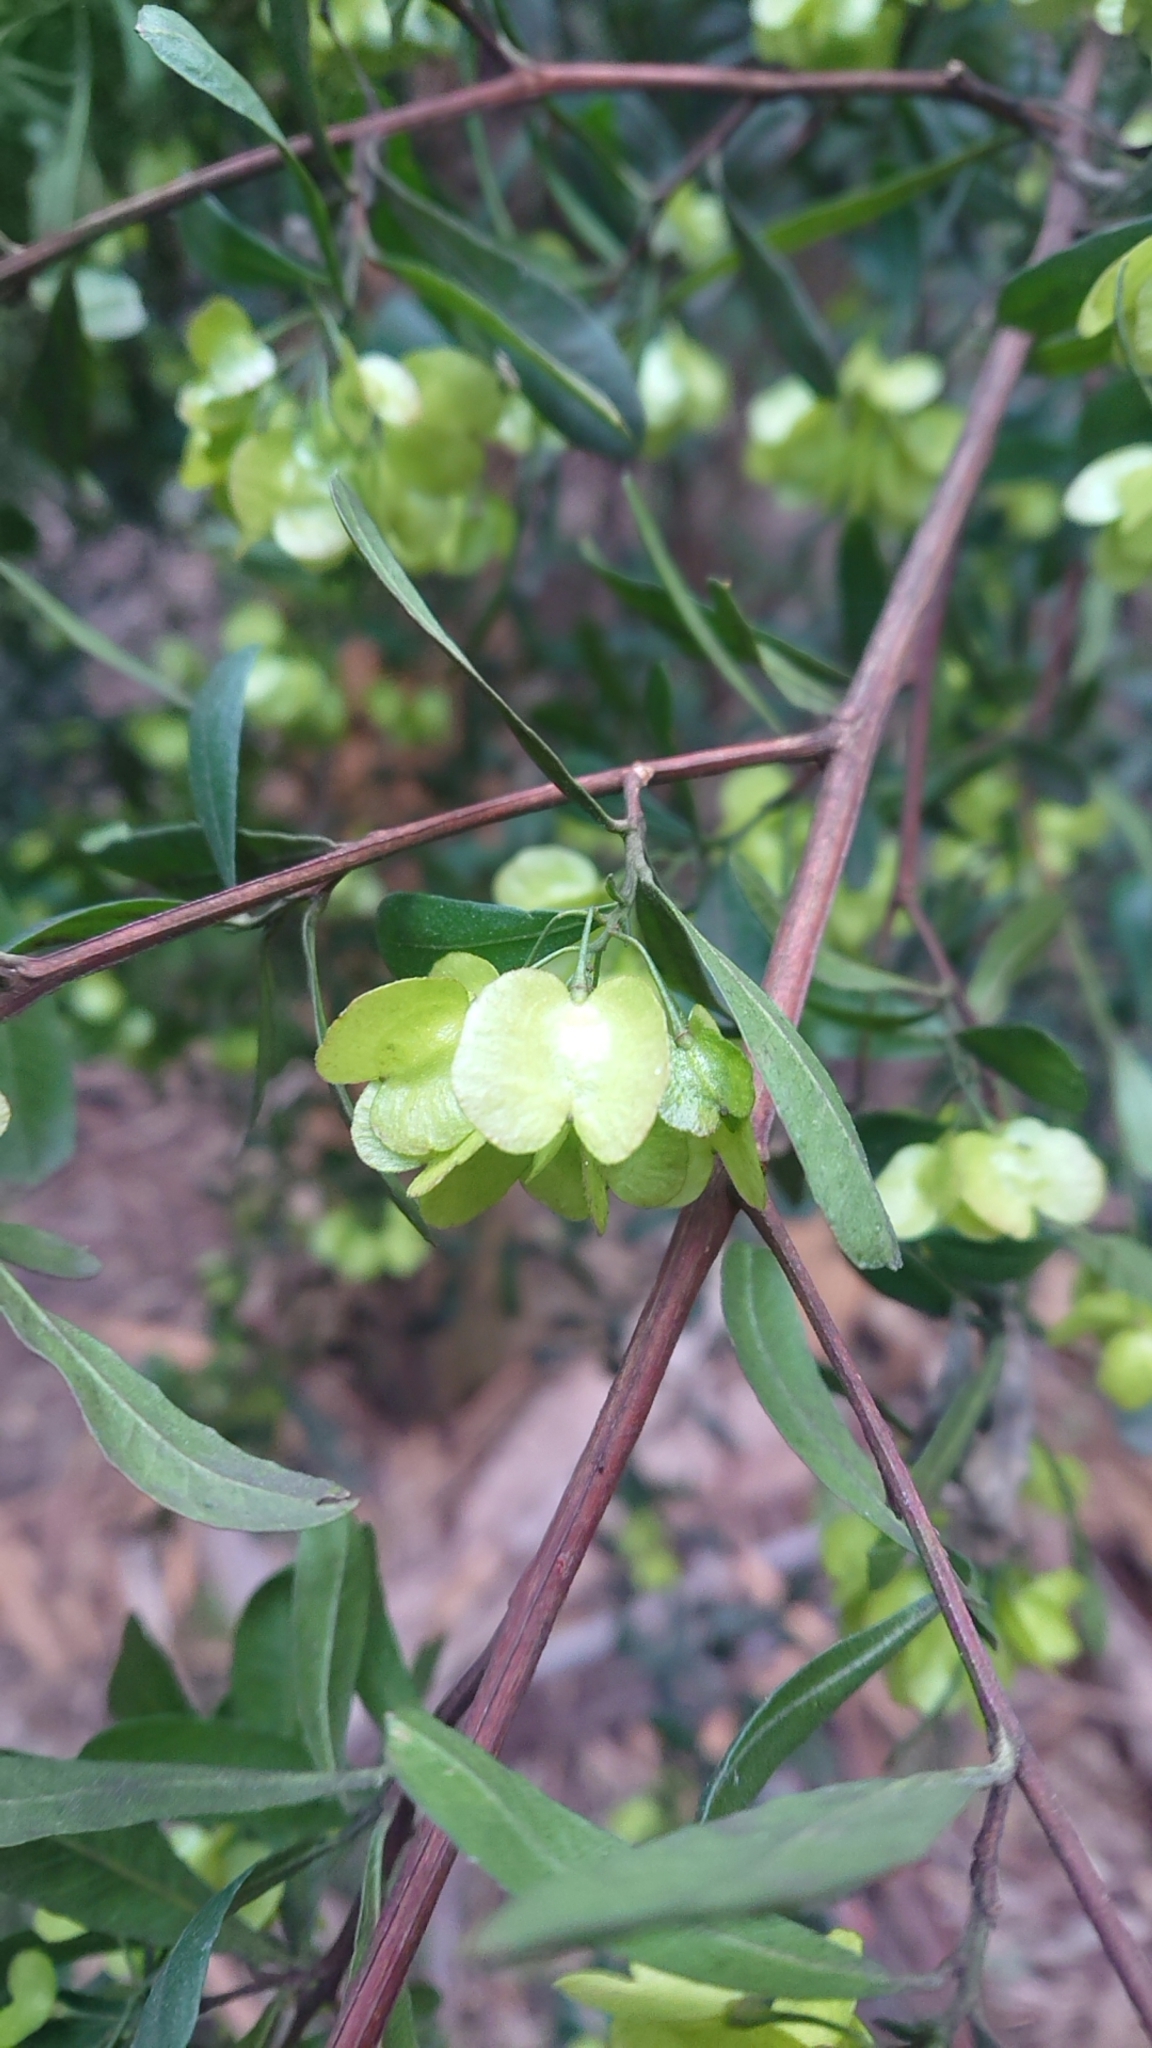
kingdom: Plantae
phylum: Tracheophyta
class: Magnoliopsida
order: Sapindales
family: Sapindaceae
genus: Dodonaea
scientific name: Dodonaea viscosa
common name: Hopbush
